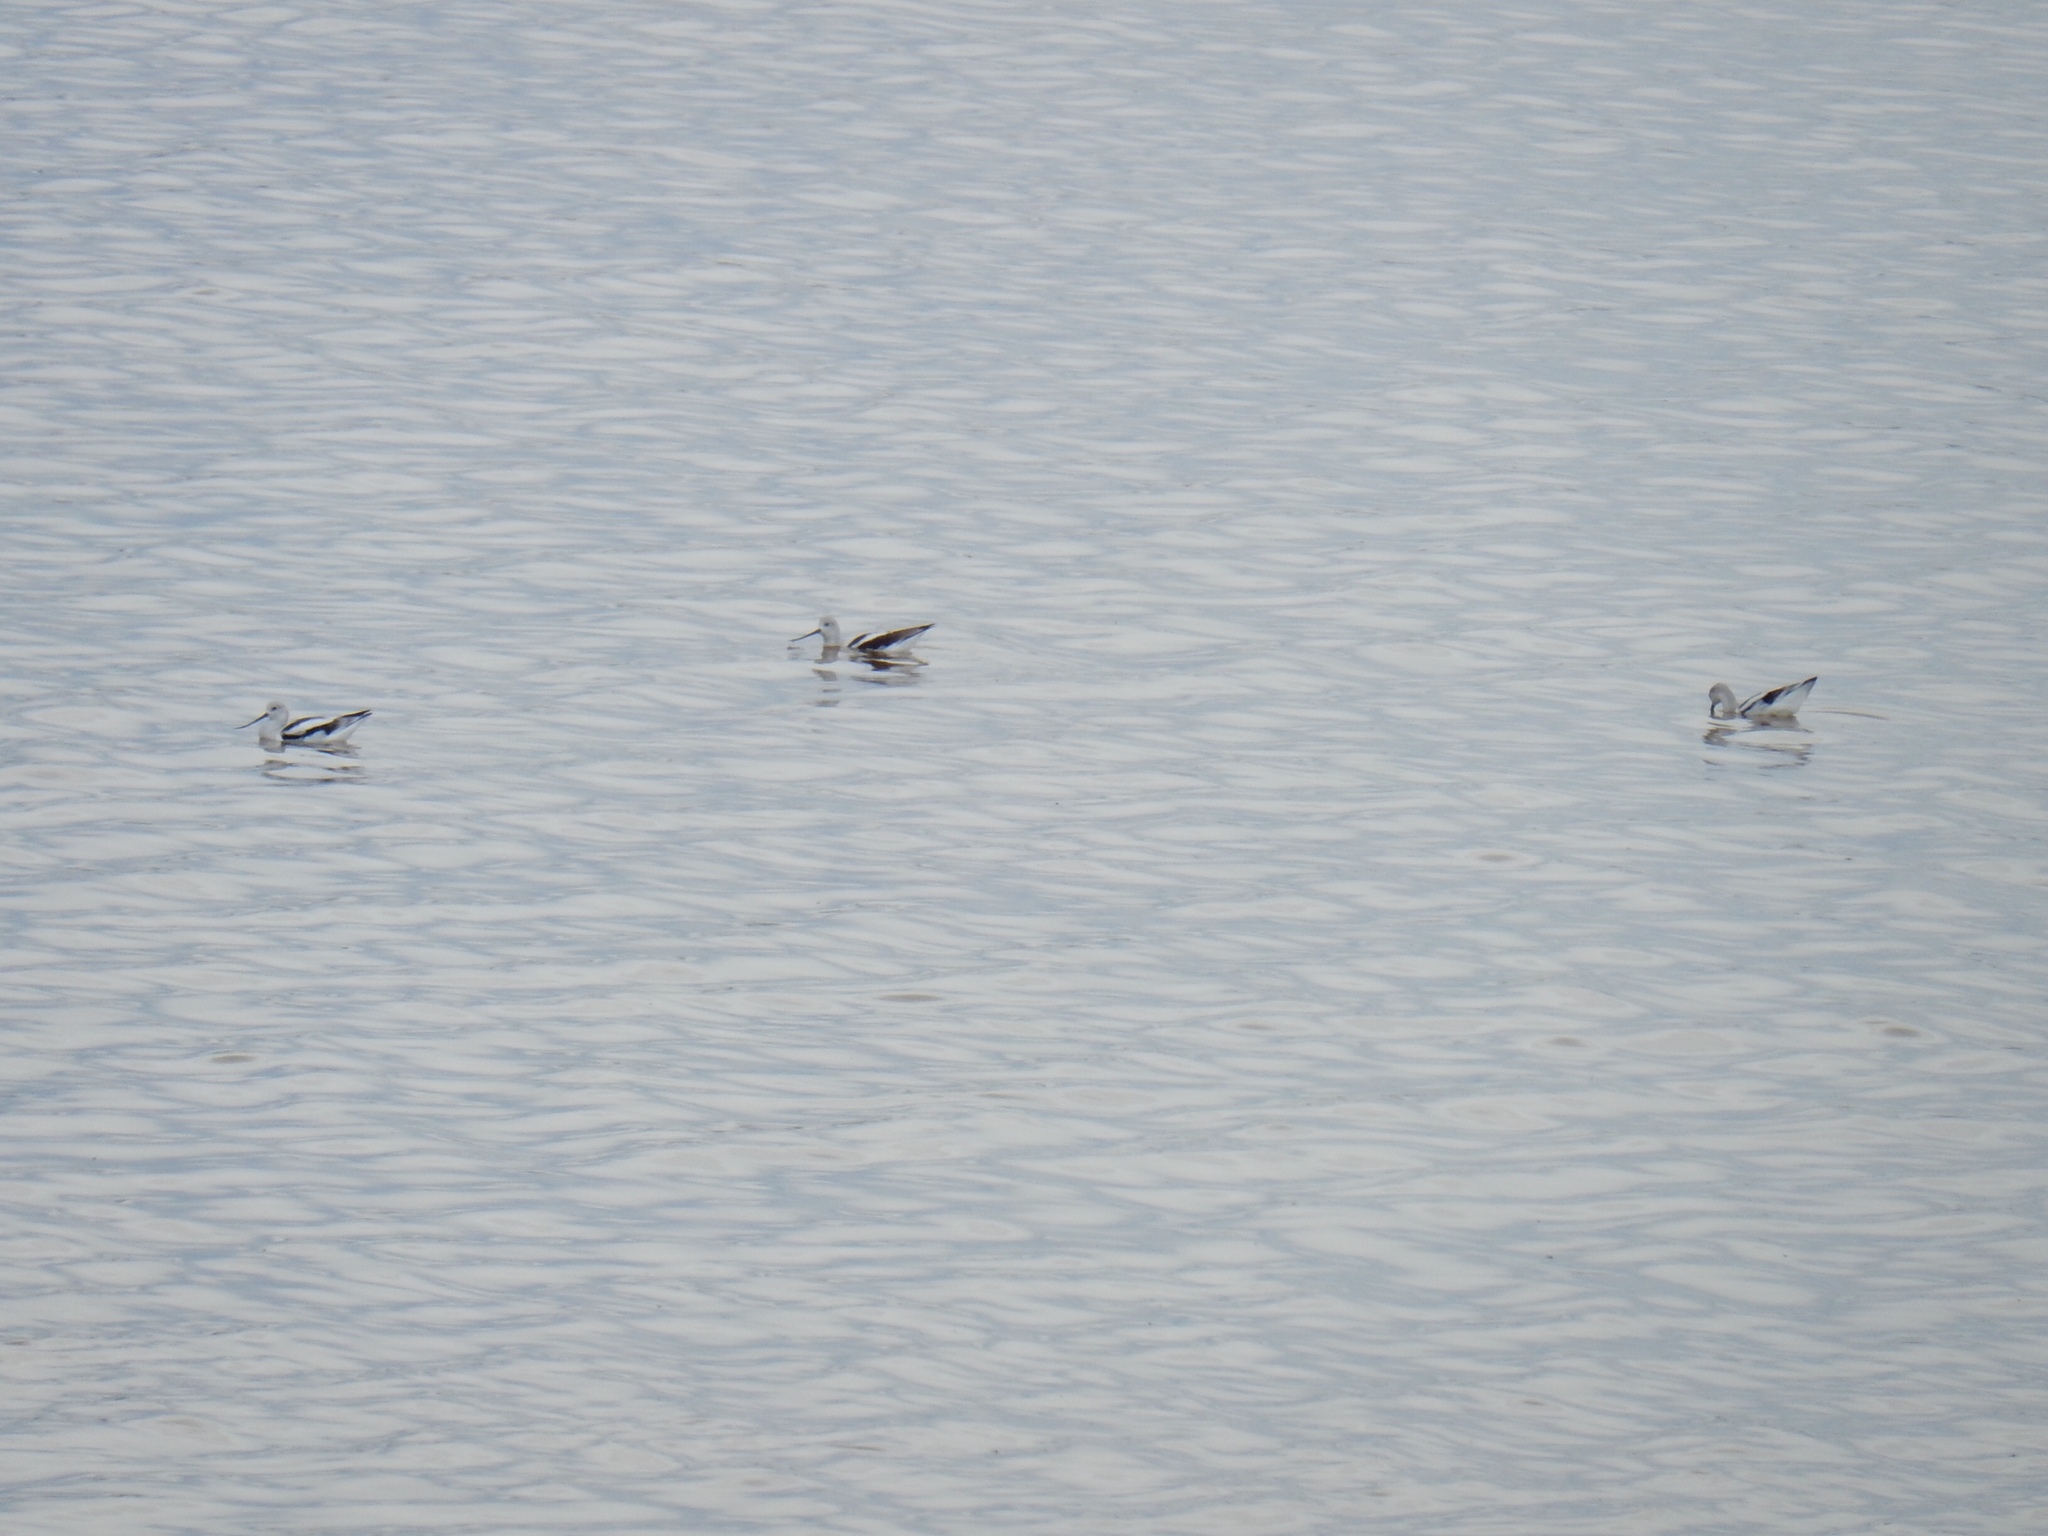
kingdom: Animalia
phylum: Chordata
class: Aves
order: Charadriiformes
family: Recurvirostridae
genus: Recurvirostra
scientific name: Recurvirostra americana
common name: American avocet
